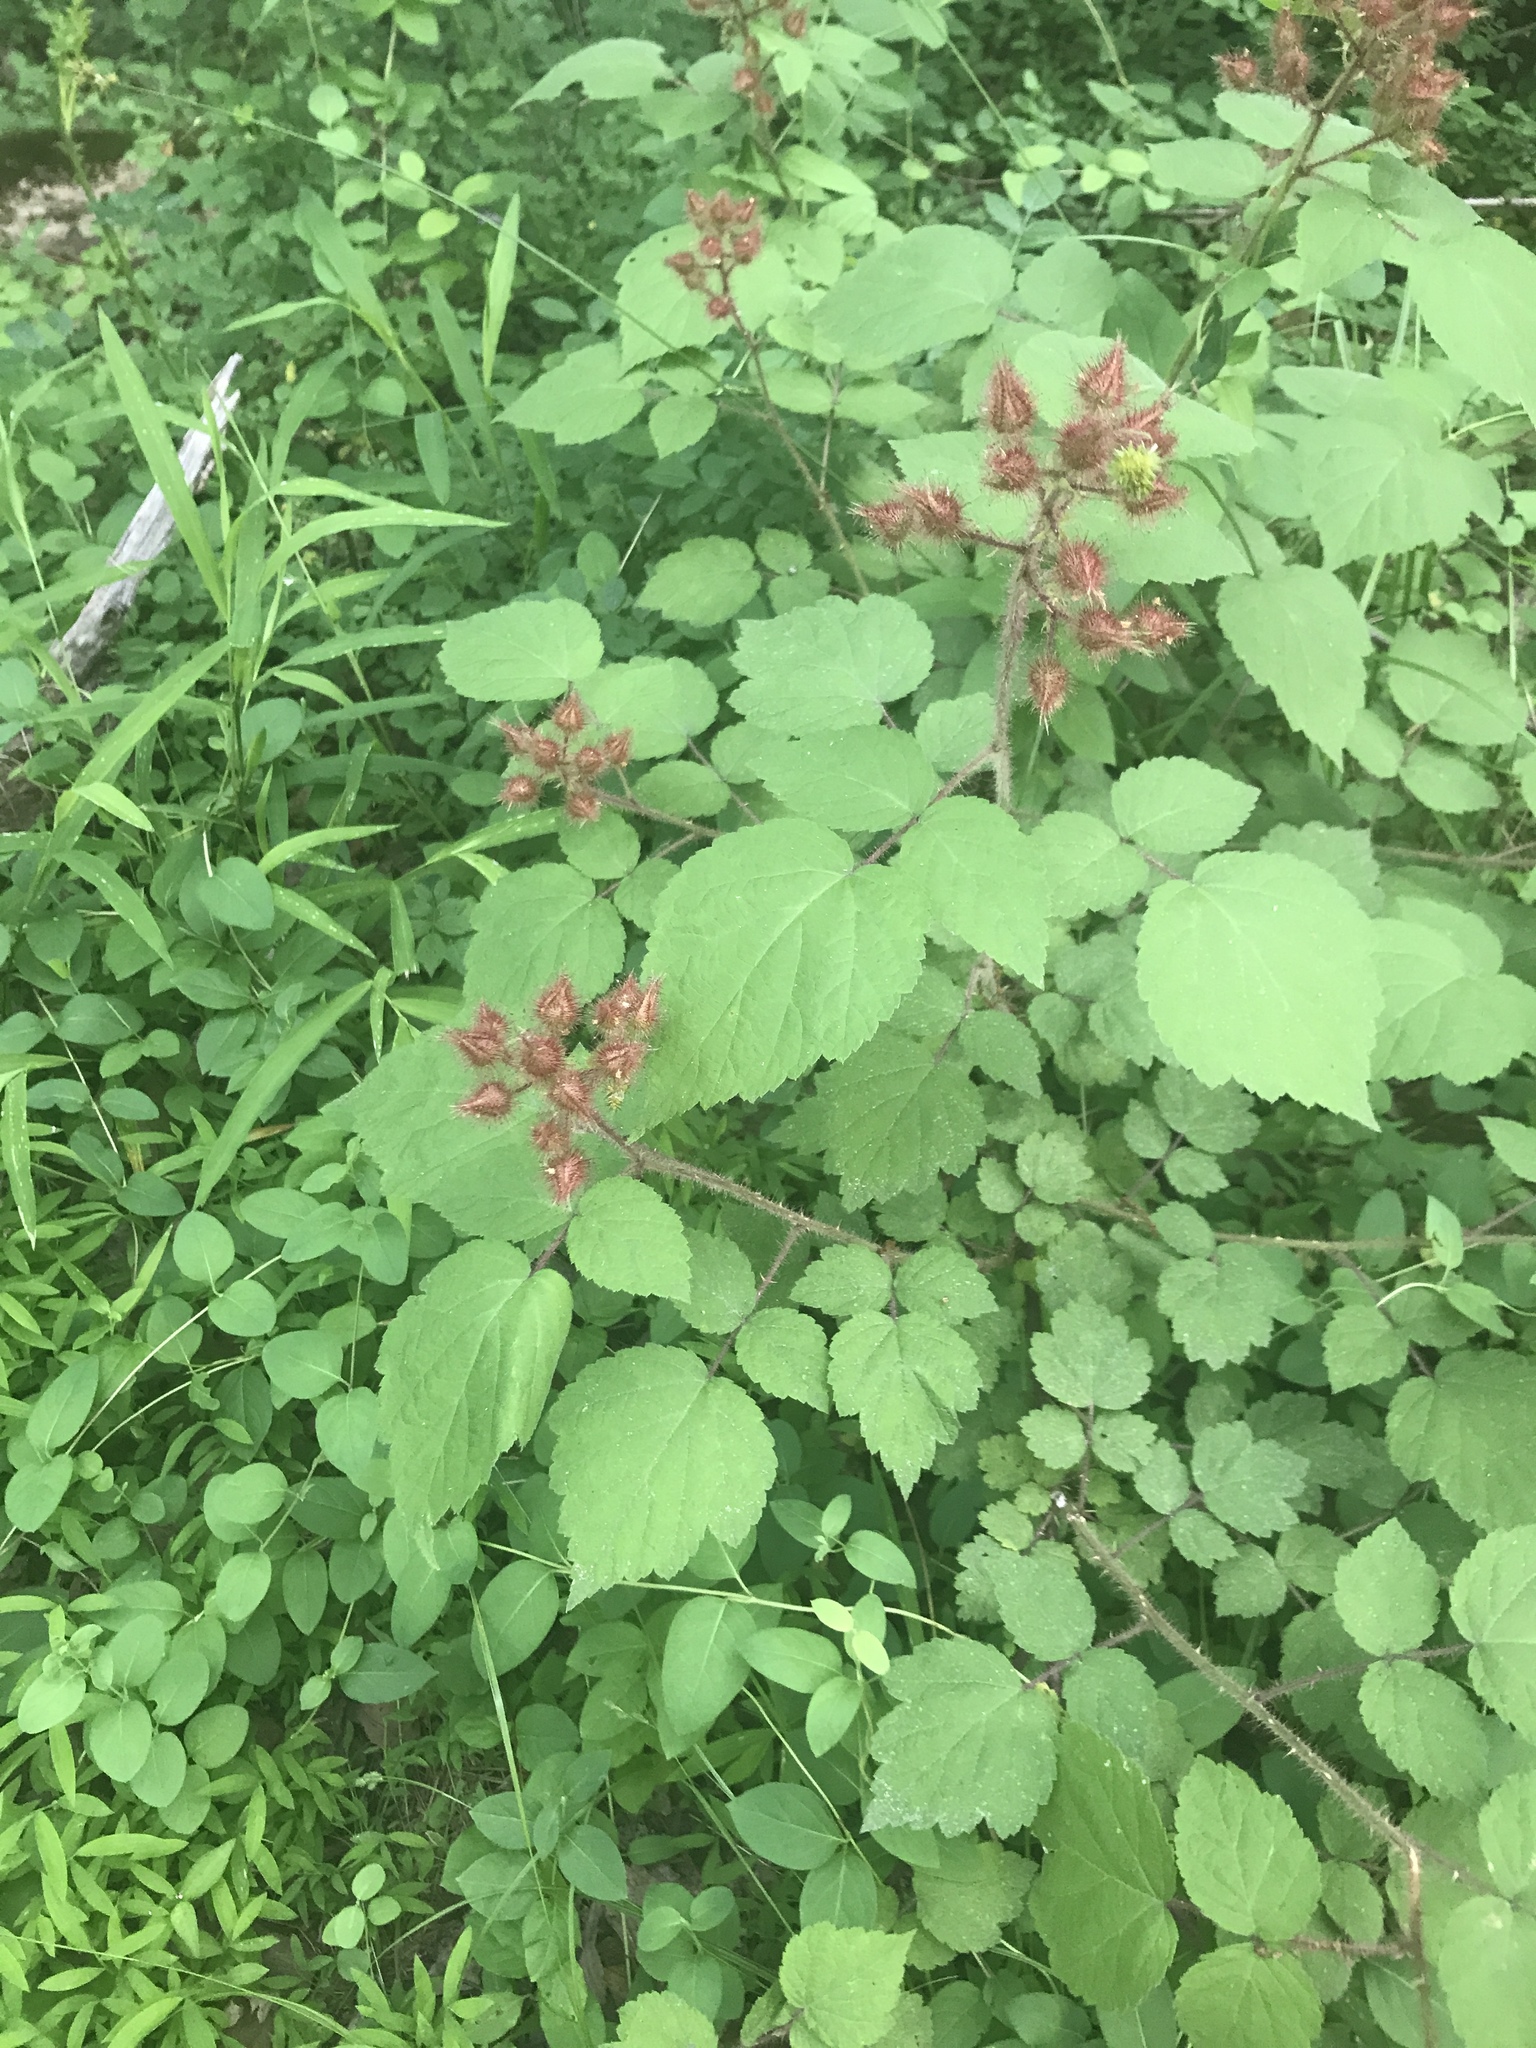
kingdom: Plantae
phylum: Tracheophyta
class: Magnoliopsida
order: Rosales
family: Rosaceae
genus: Rubus
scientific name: Rubus phoenicolasius
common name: Japanese wineberry
